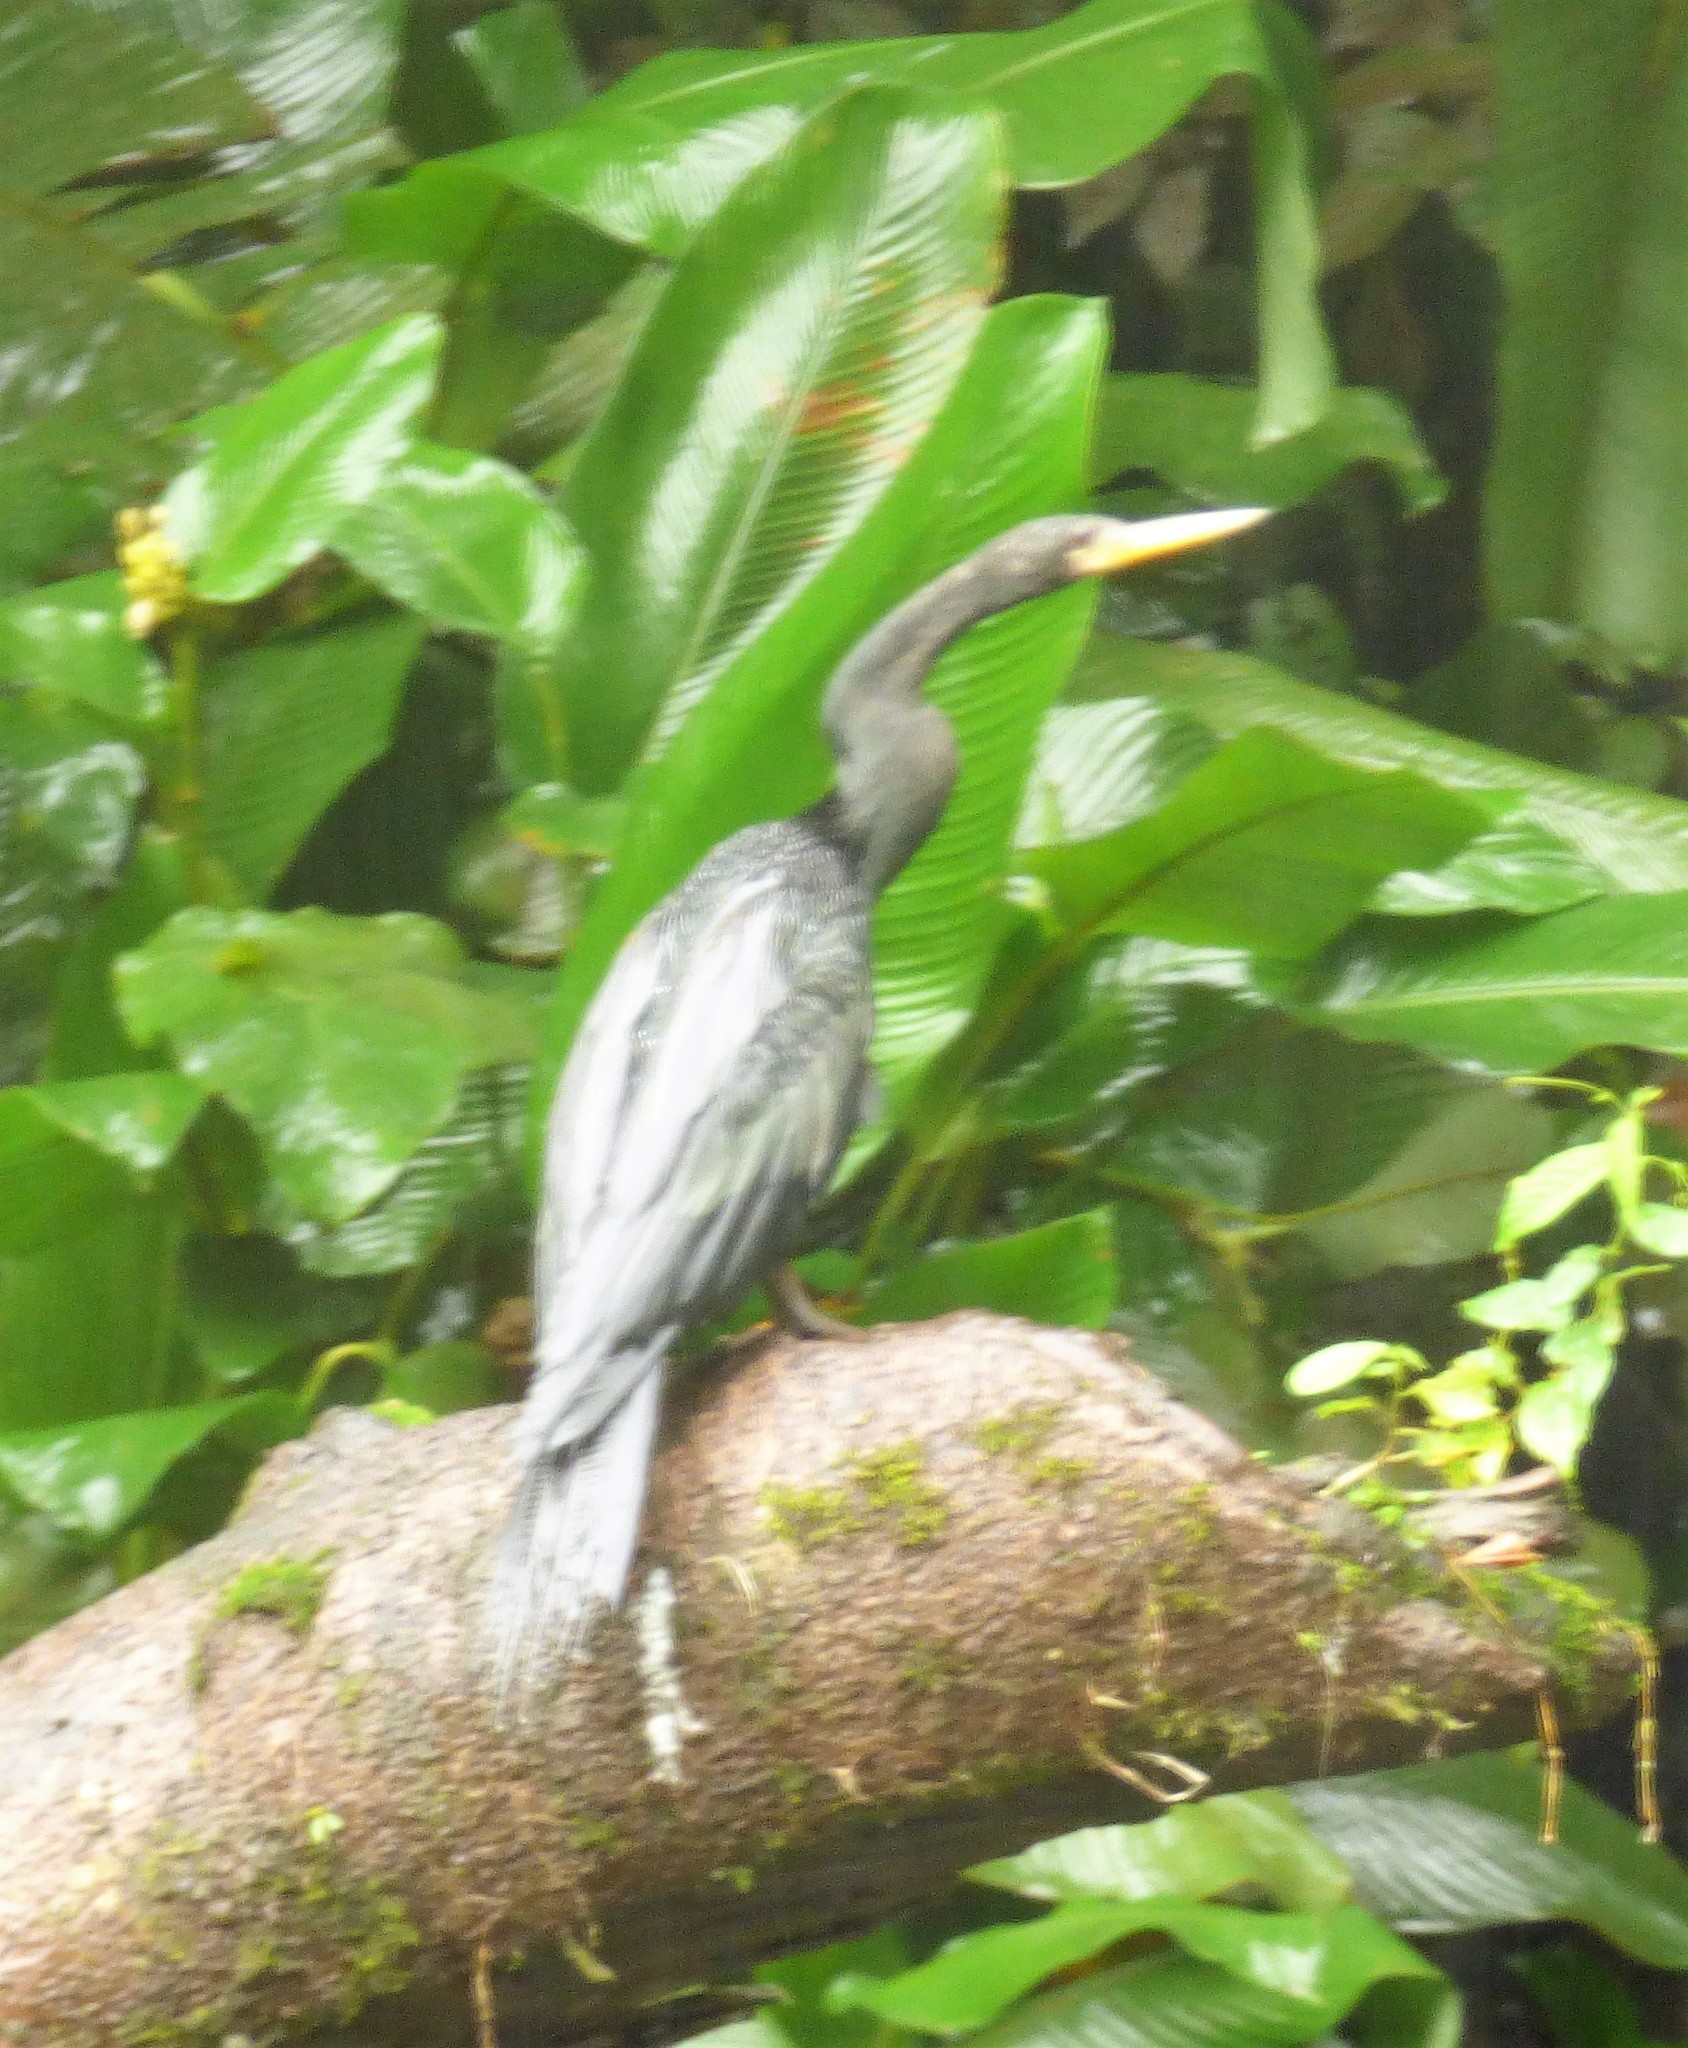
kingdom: Animalia
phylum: Chordata
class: Aves
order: Suliformes
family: Anhingidae
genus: Anhinga
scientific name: Anhinga anhinga
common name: Anhinga
